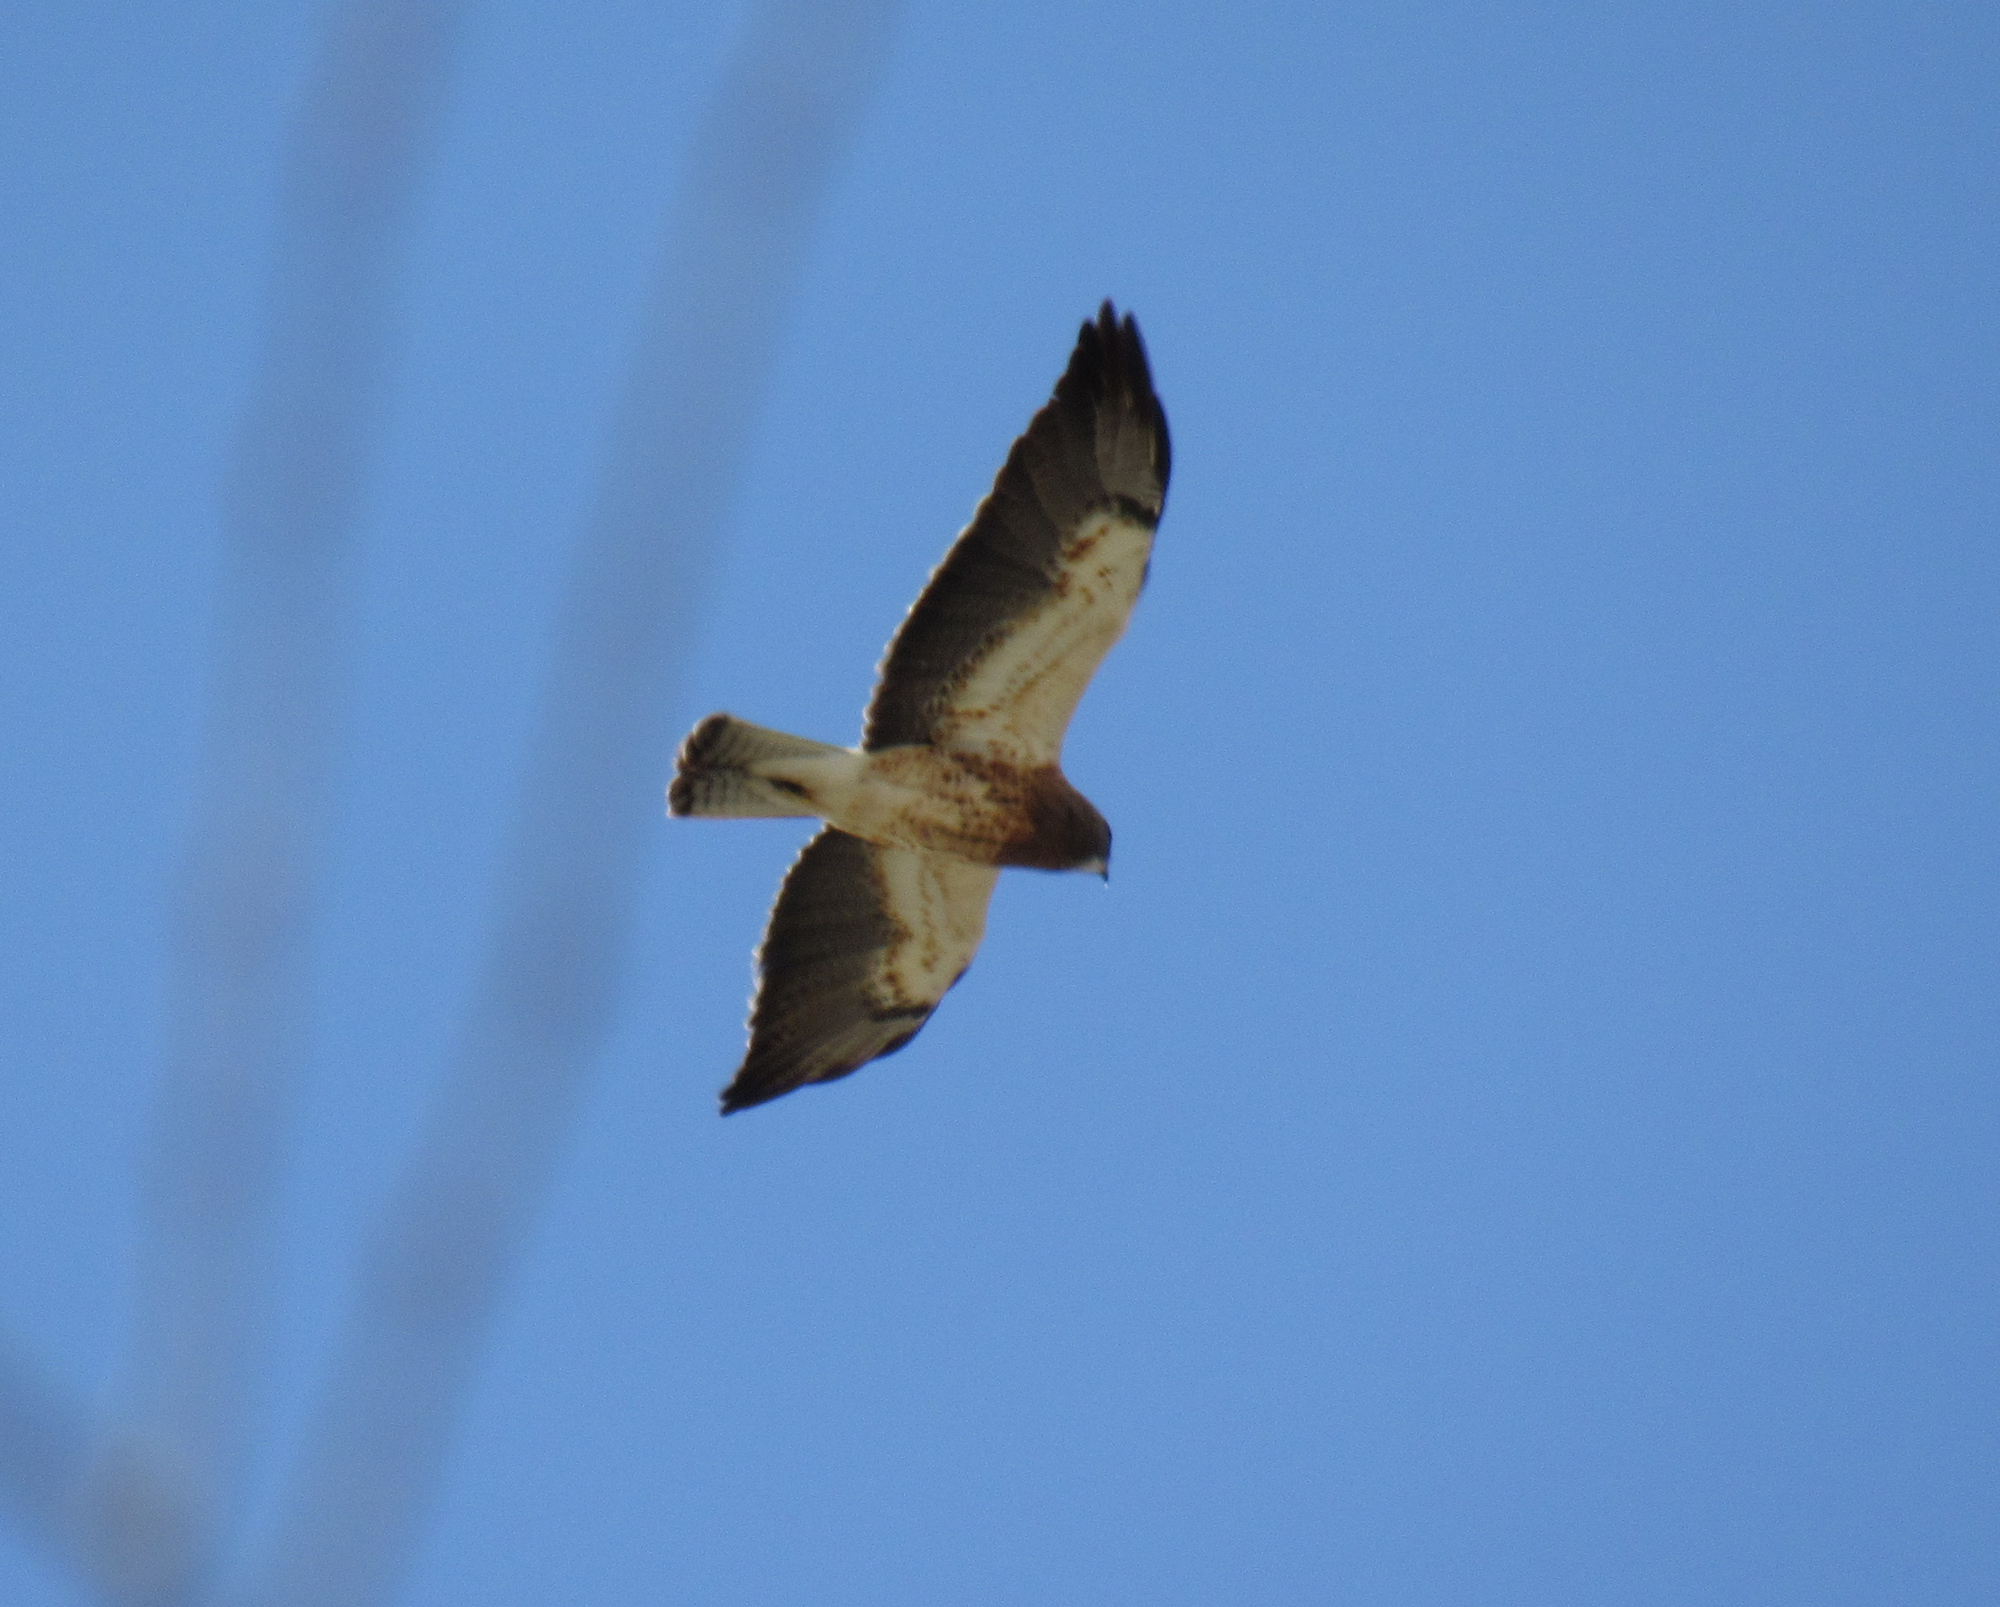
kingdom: Animalia
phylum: Chordata
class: Aves
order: Accipitriformes
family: Accipitridae
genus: Buteo
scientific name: Buteo swainsoni
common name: Swainson's hawk
